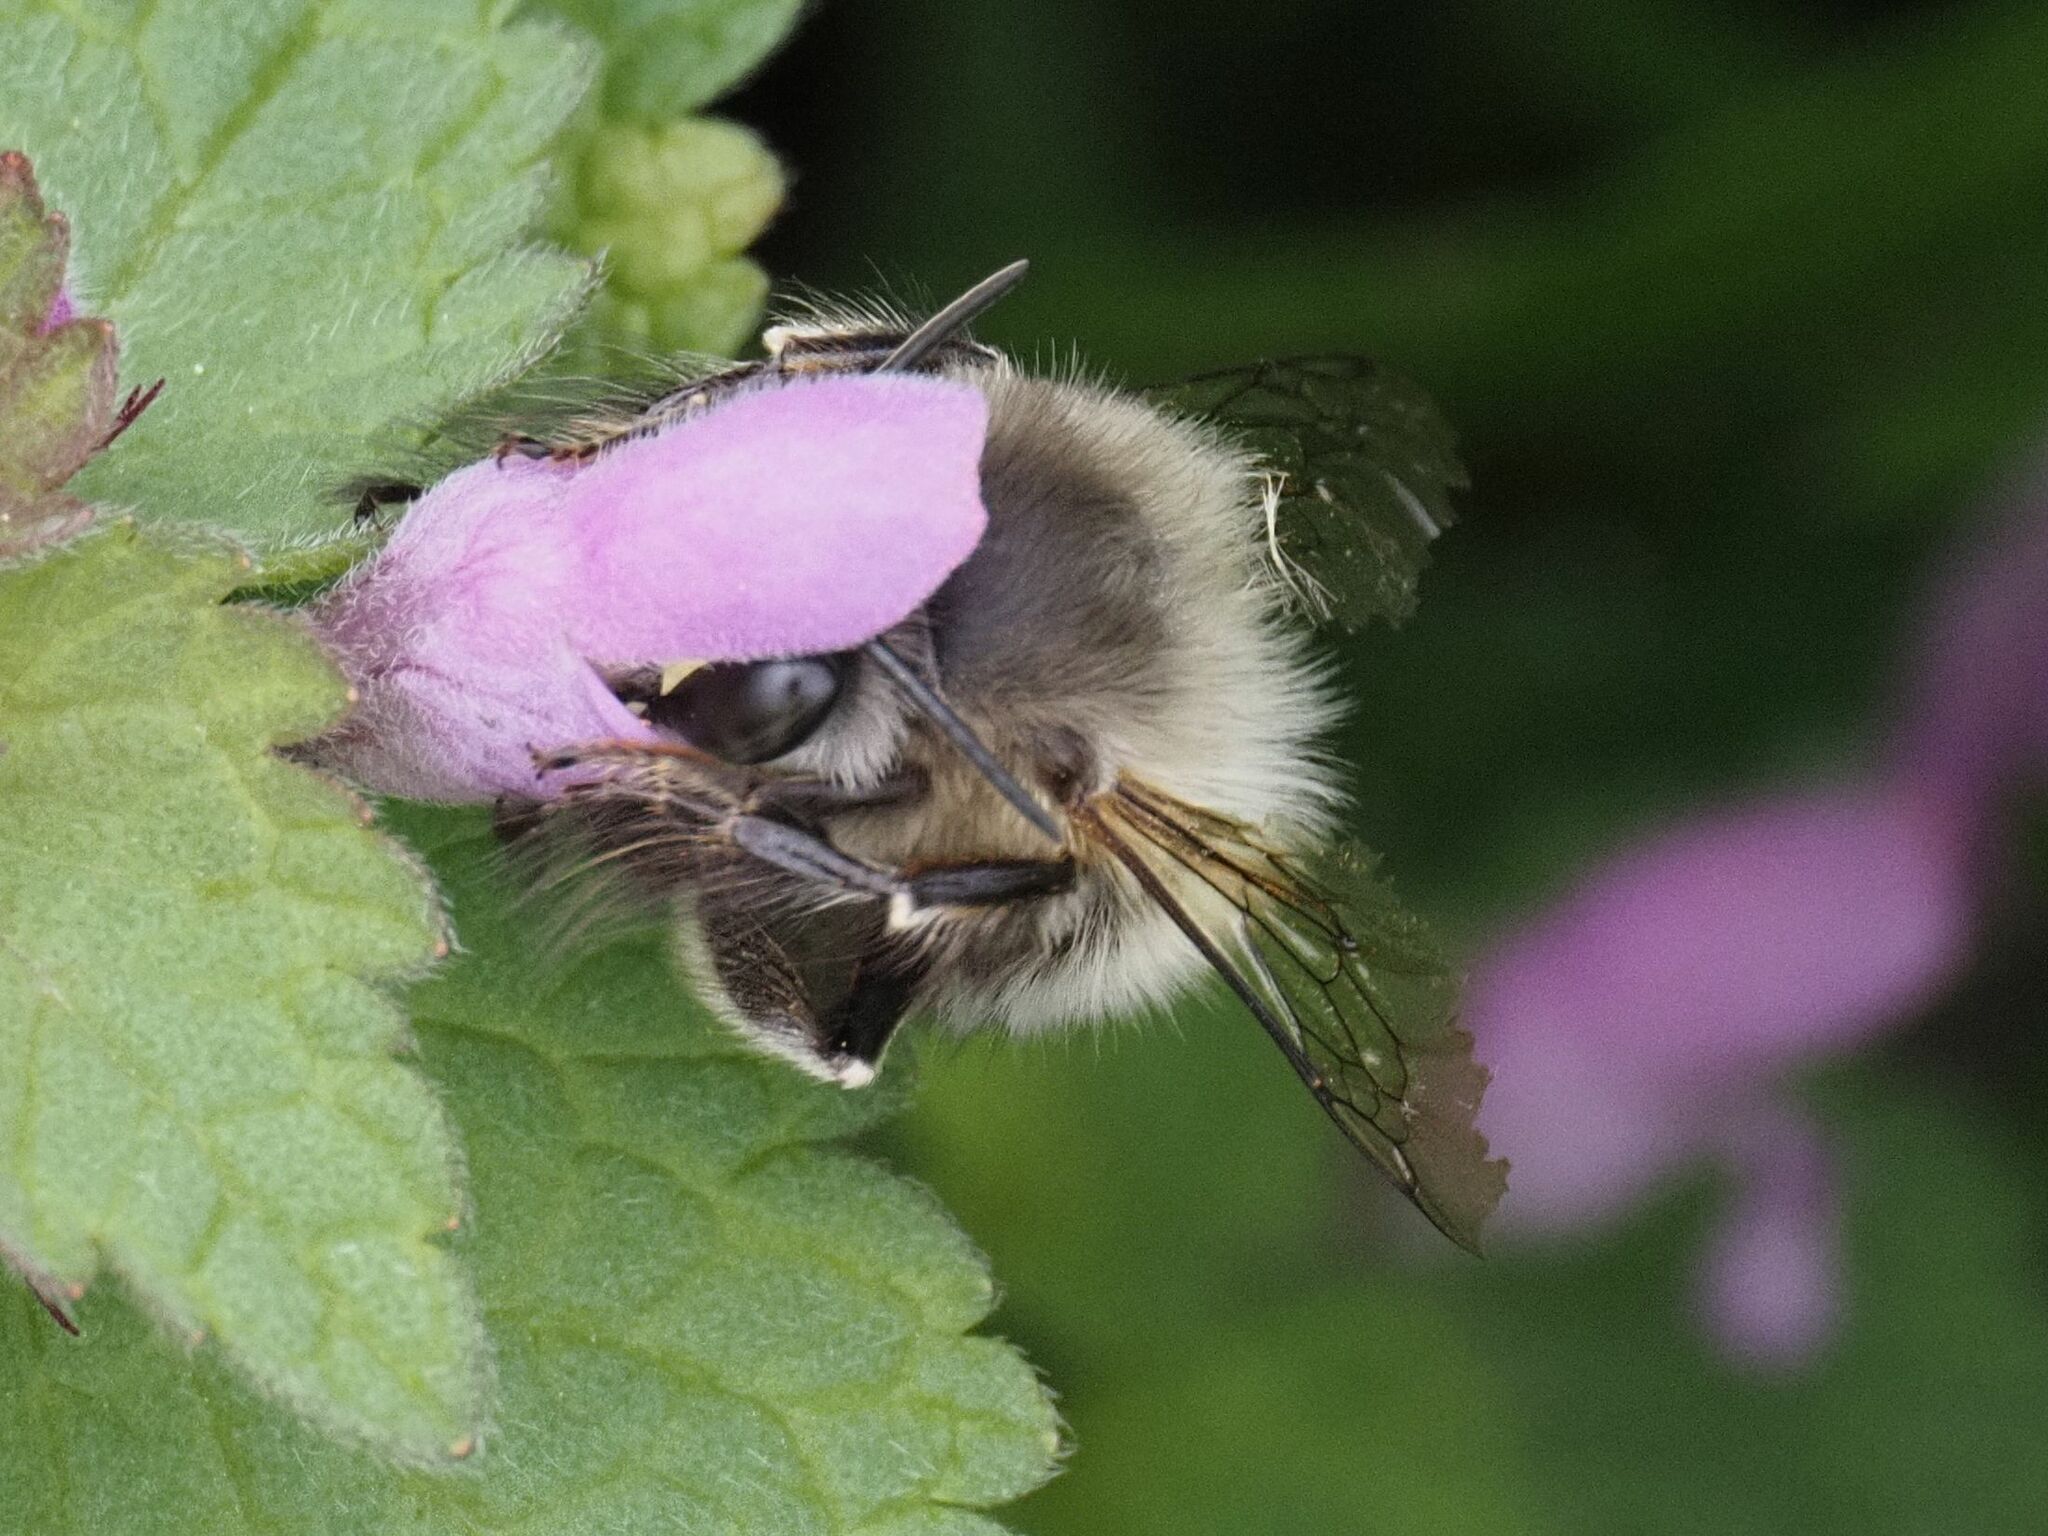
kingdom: Animalia
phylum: Arthropoda
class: Insecta
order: Hymenoptera
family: Apidae
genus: Anthophora
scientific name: Anthophora plumipes
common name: Hairy-footed flower bee
